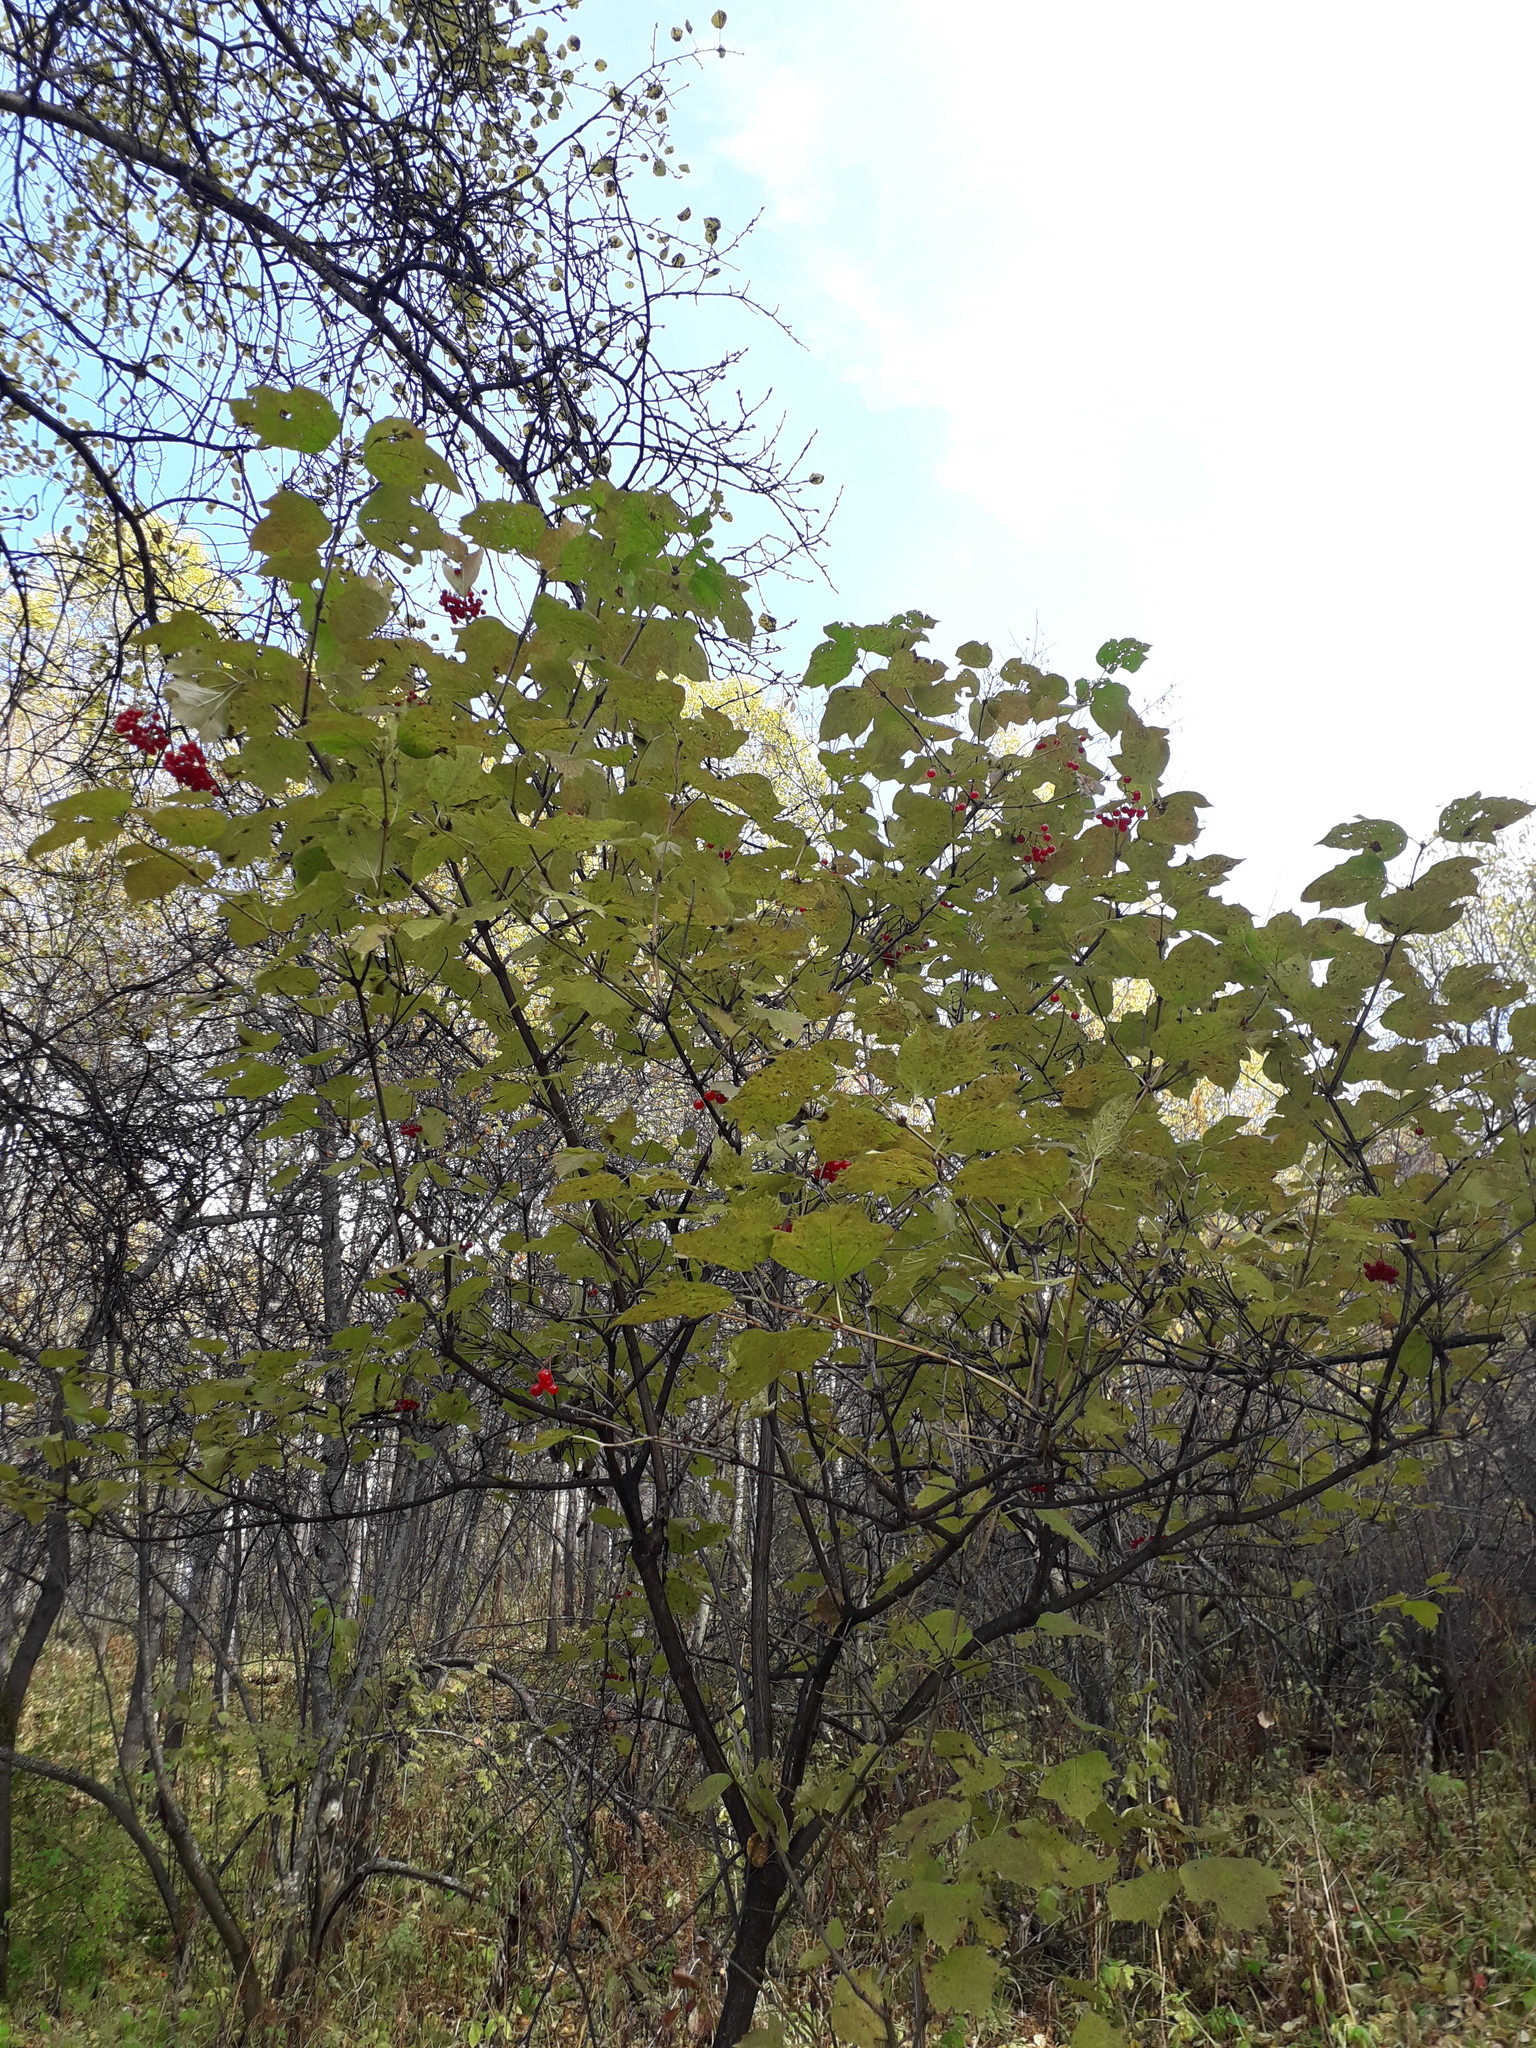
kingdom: Plantae
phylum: Tracheophyta
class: Magnoliopsida
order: Dipsacales
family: Viburnaceae
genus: Viburnum
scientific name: Viburnum opulus
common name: Guelder-rose
